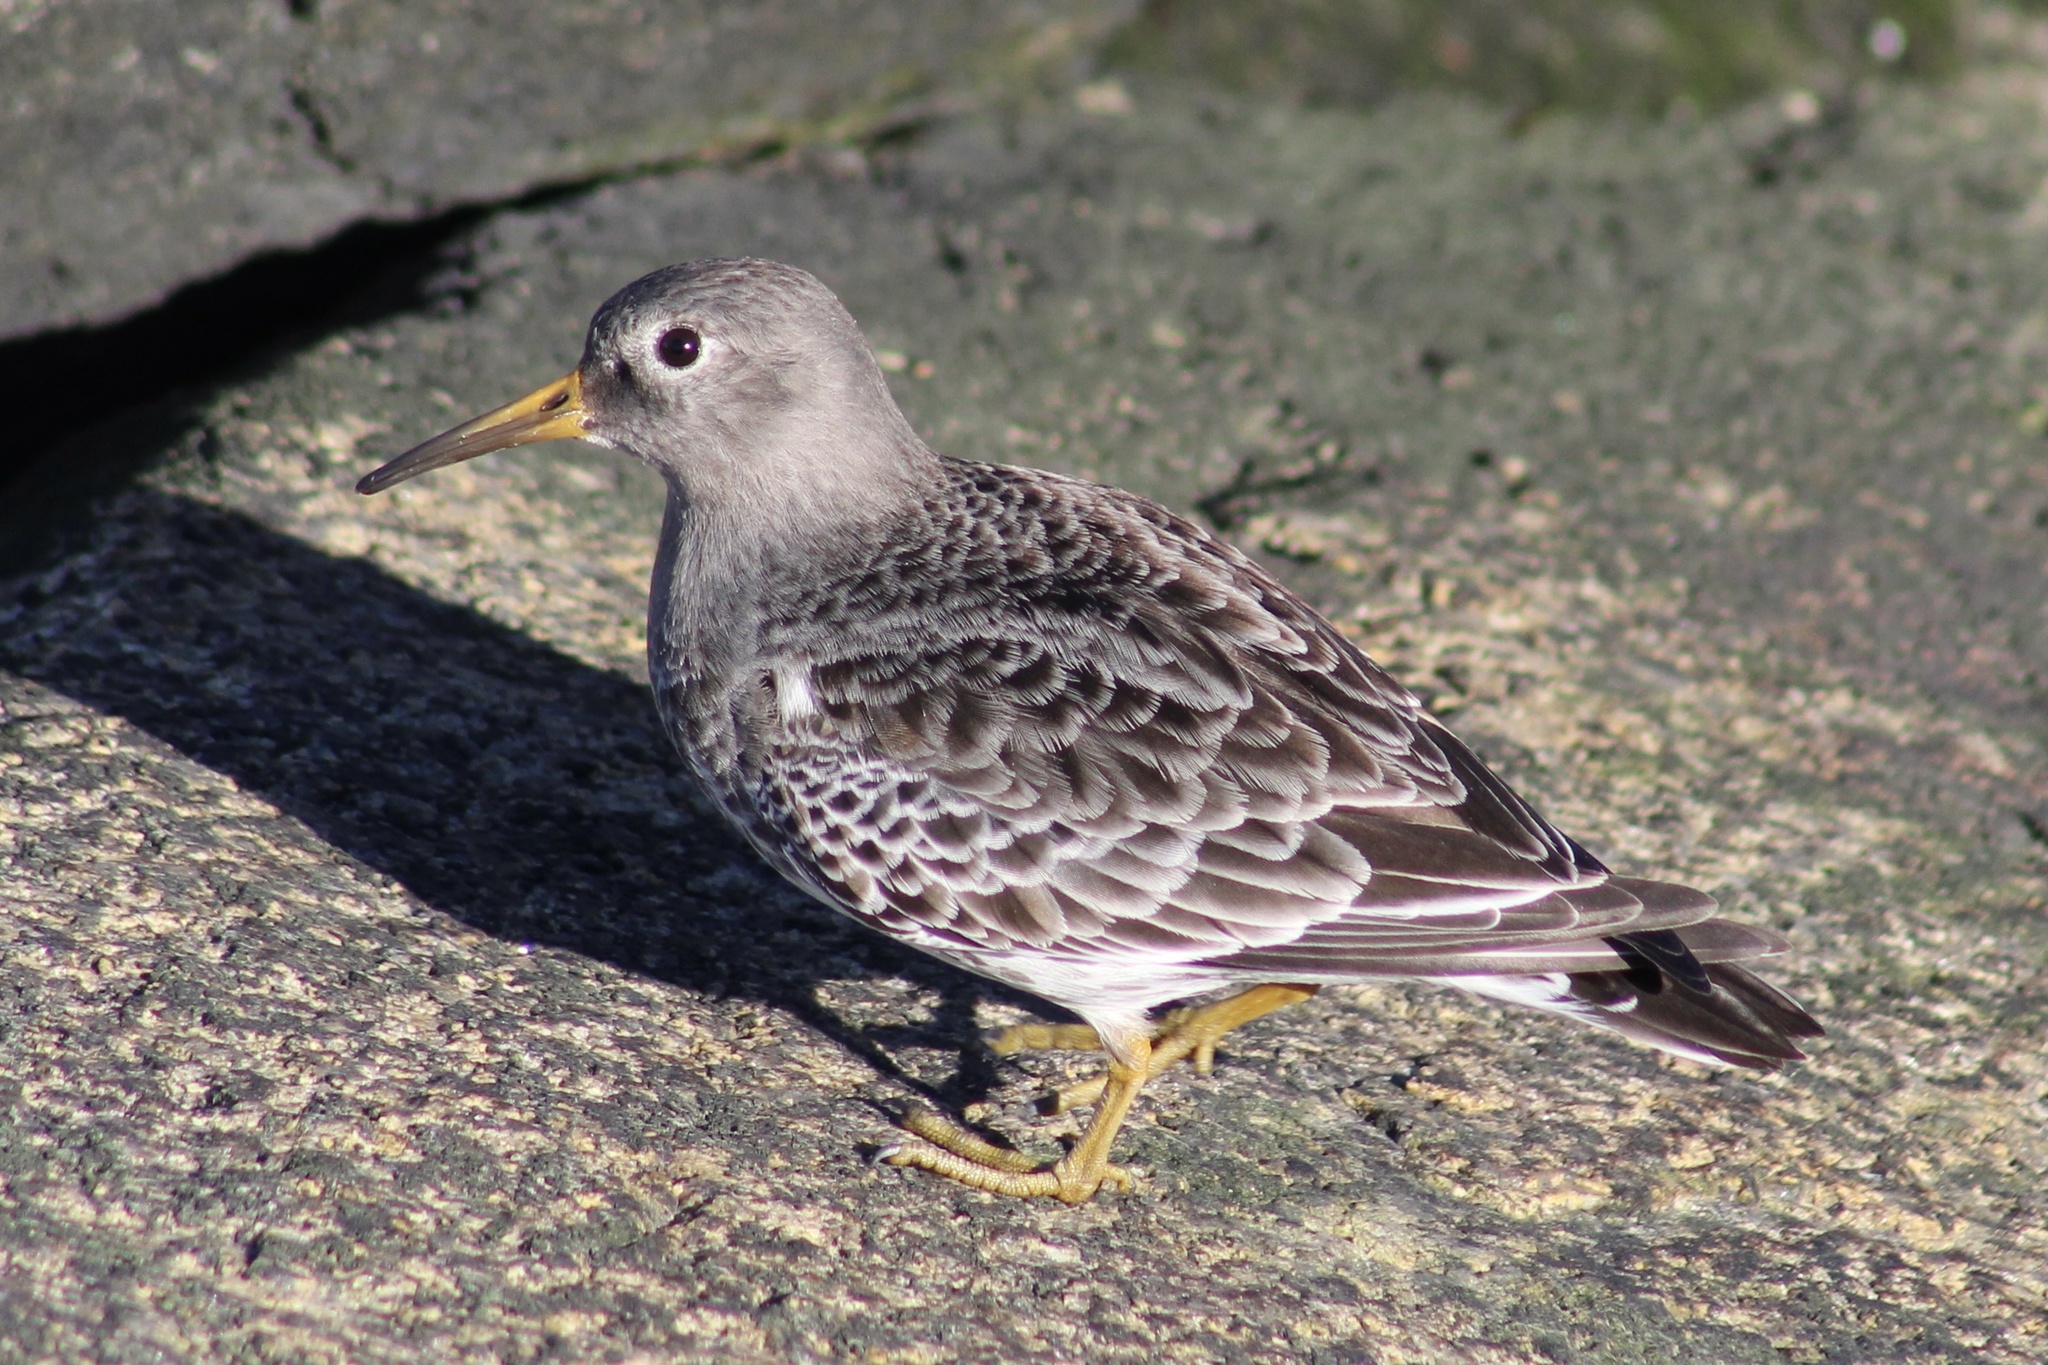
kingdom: Animalia
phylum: Chordata
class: Aves
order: Charadriiformes
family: Scolopacidae
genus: Calidris
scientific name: Calidris maritima
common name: Purple sandpiper
